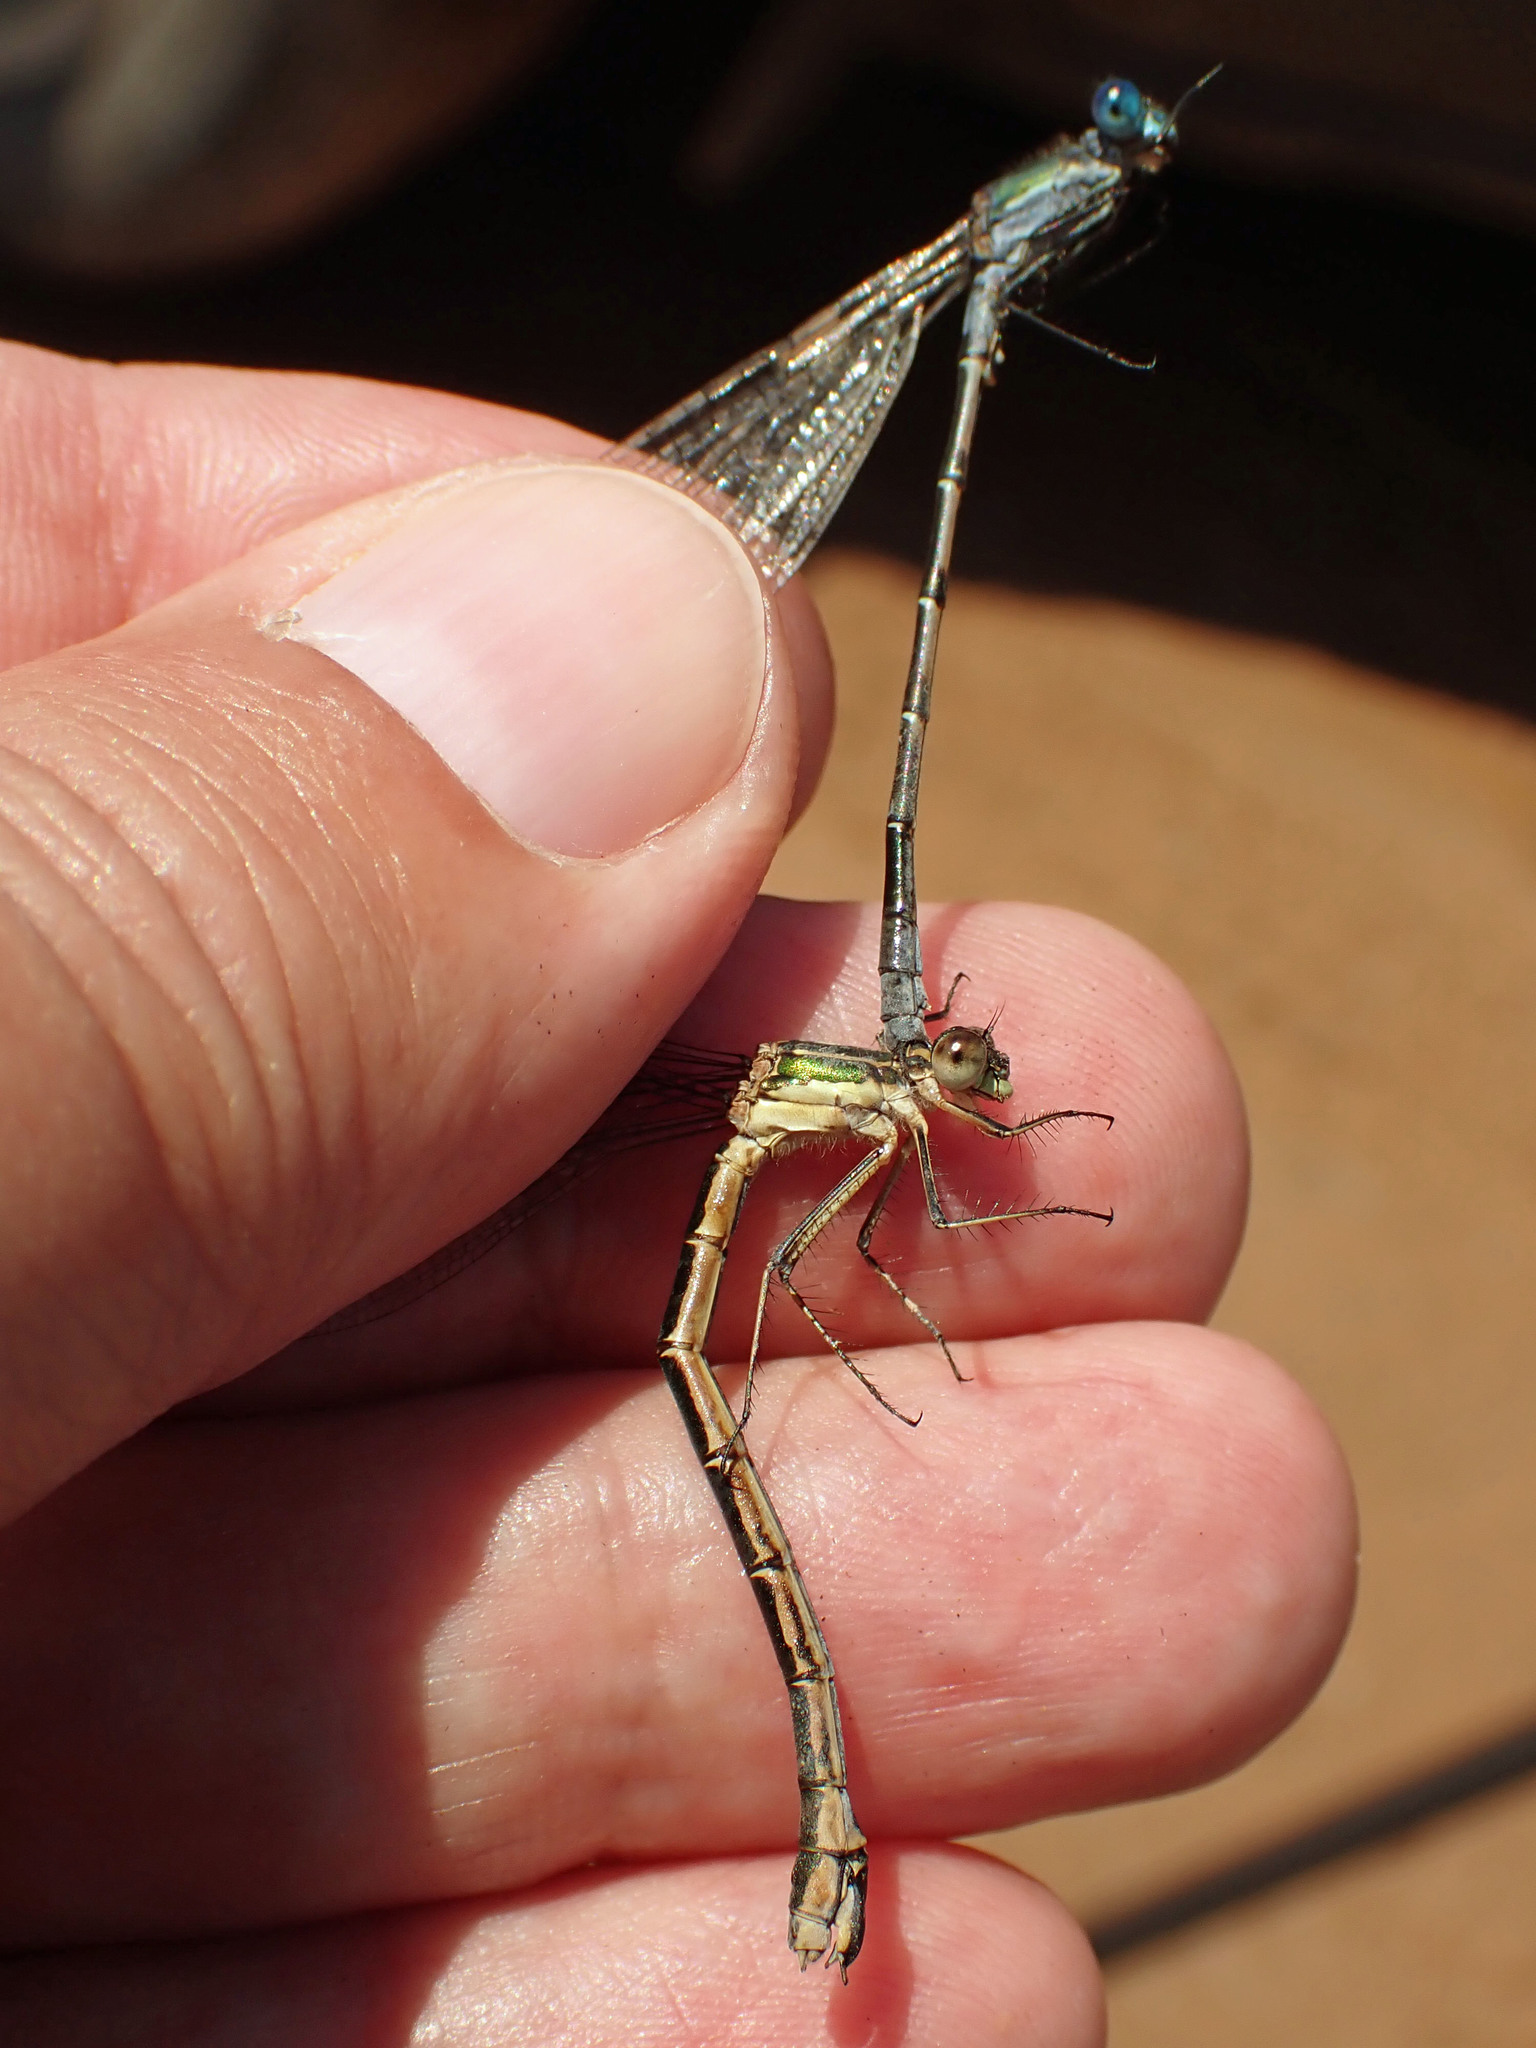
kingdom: Animalia
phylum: Arthropoda
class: Insecta
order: Odonata
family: Lestidae
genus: Lestes
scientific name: Lestes dryas
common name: Scarce emerald damselfly
